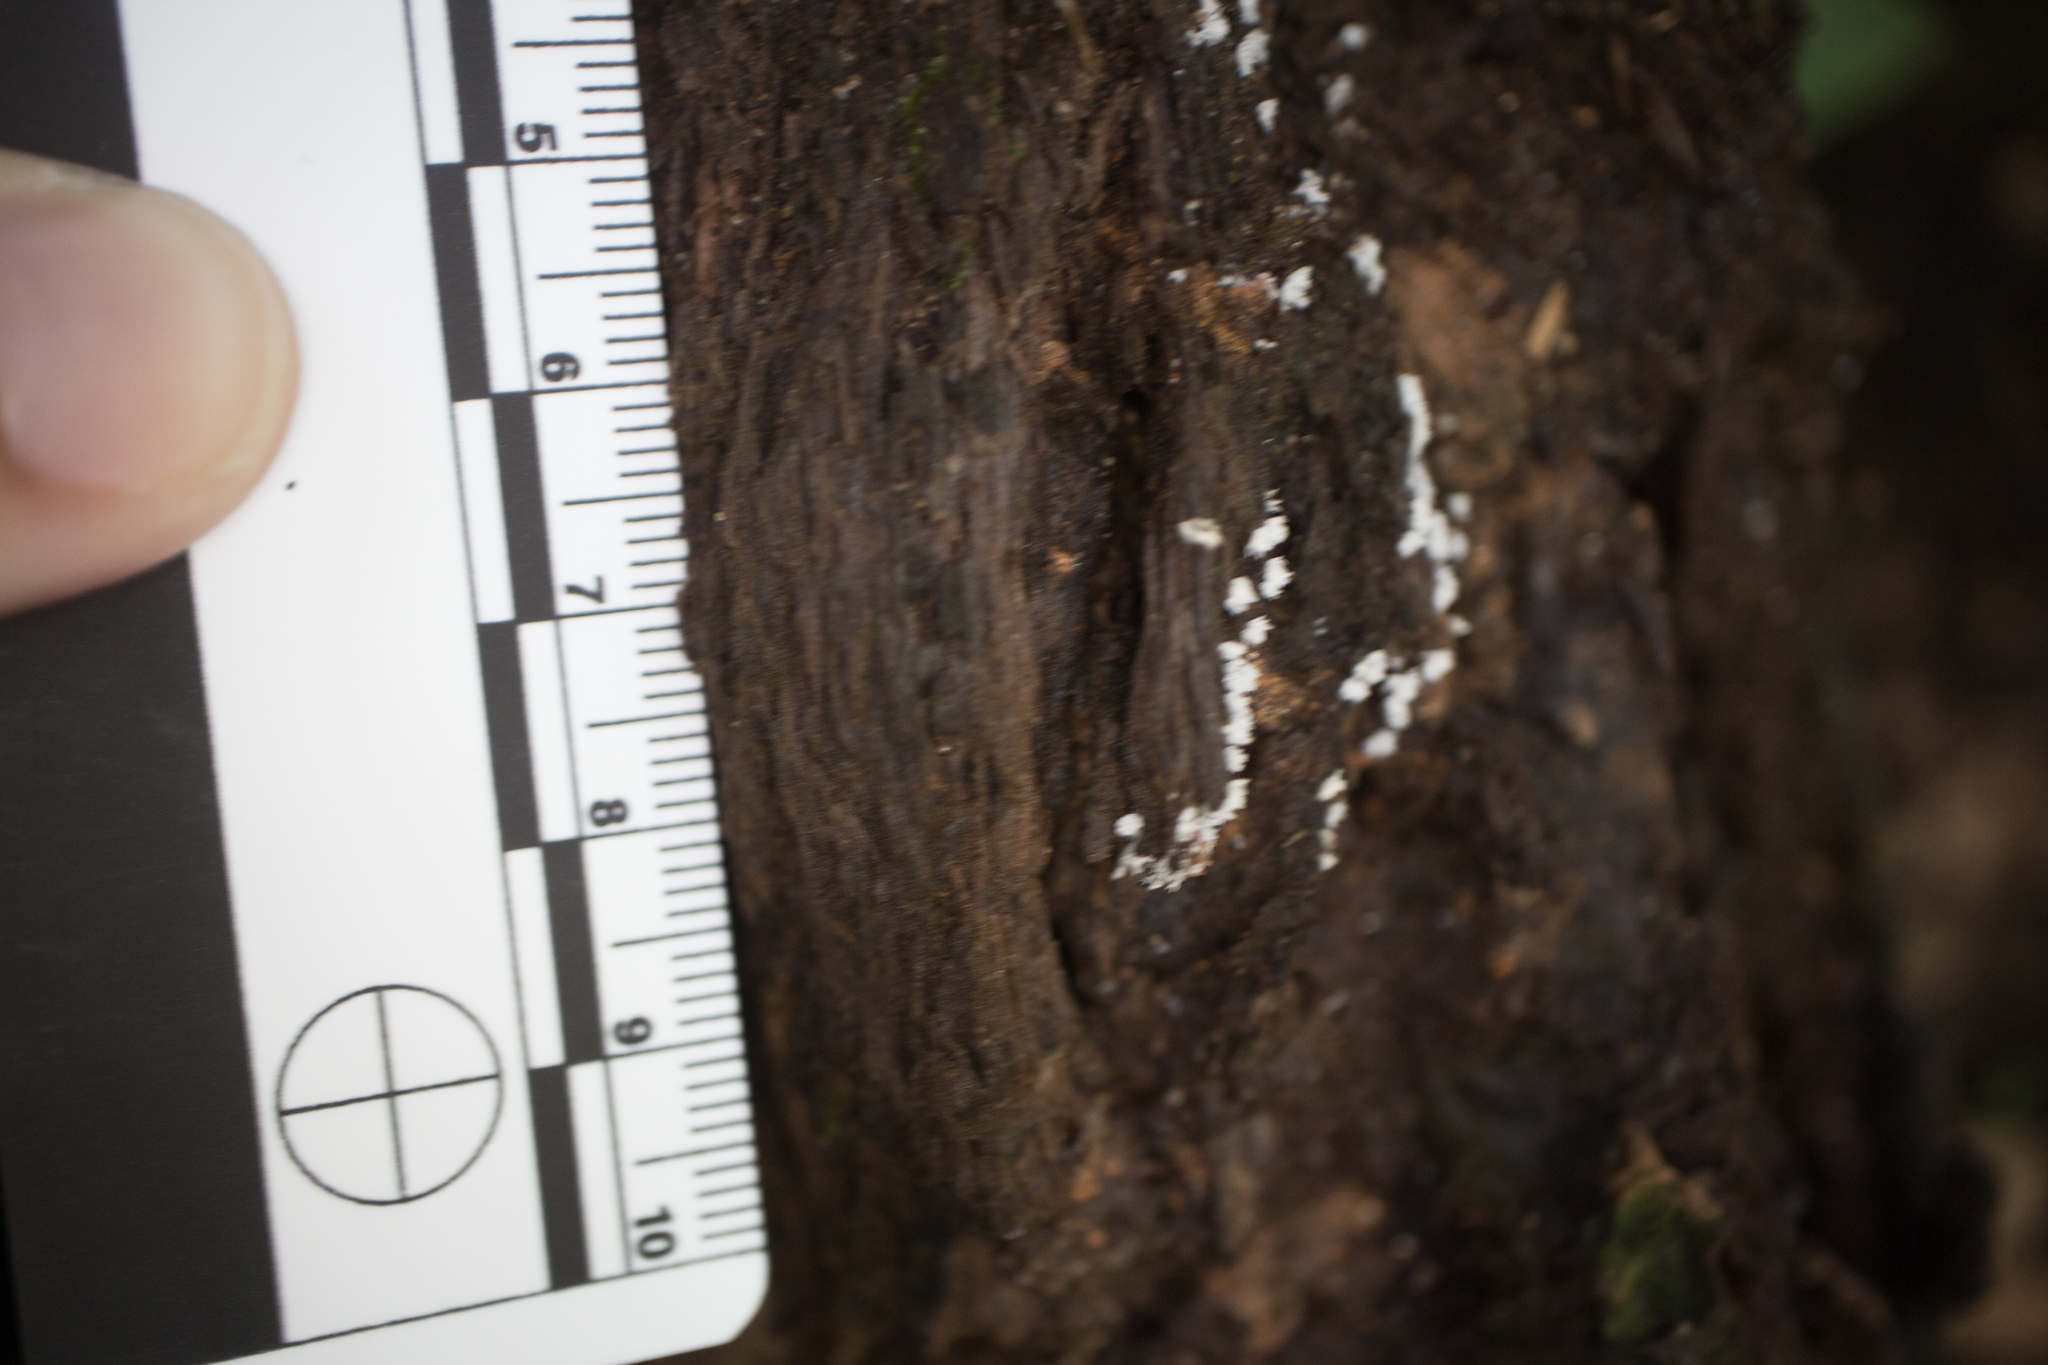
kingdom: Protozoa
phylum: Mycetozoa
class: Protosteliomycetes
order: Ceratiomyxales
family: Ceratiomyxaceae
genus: Ceratiomyxa
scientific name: Ceratiomyxa fruticulosa
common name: Honeycomb coral slime mold
